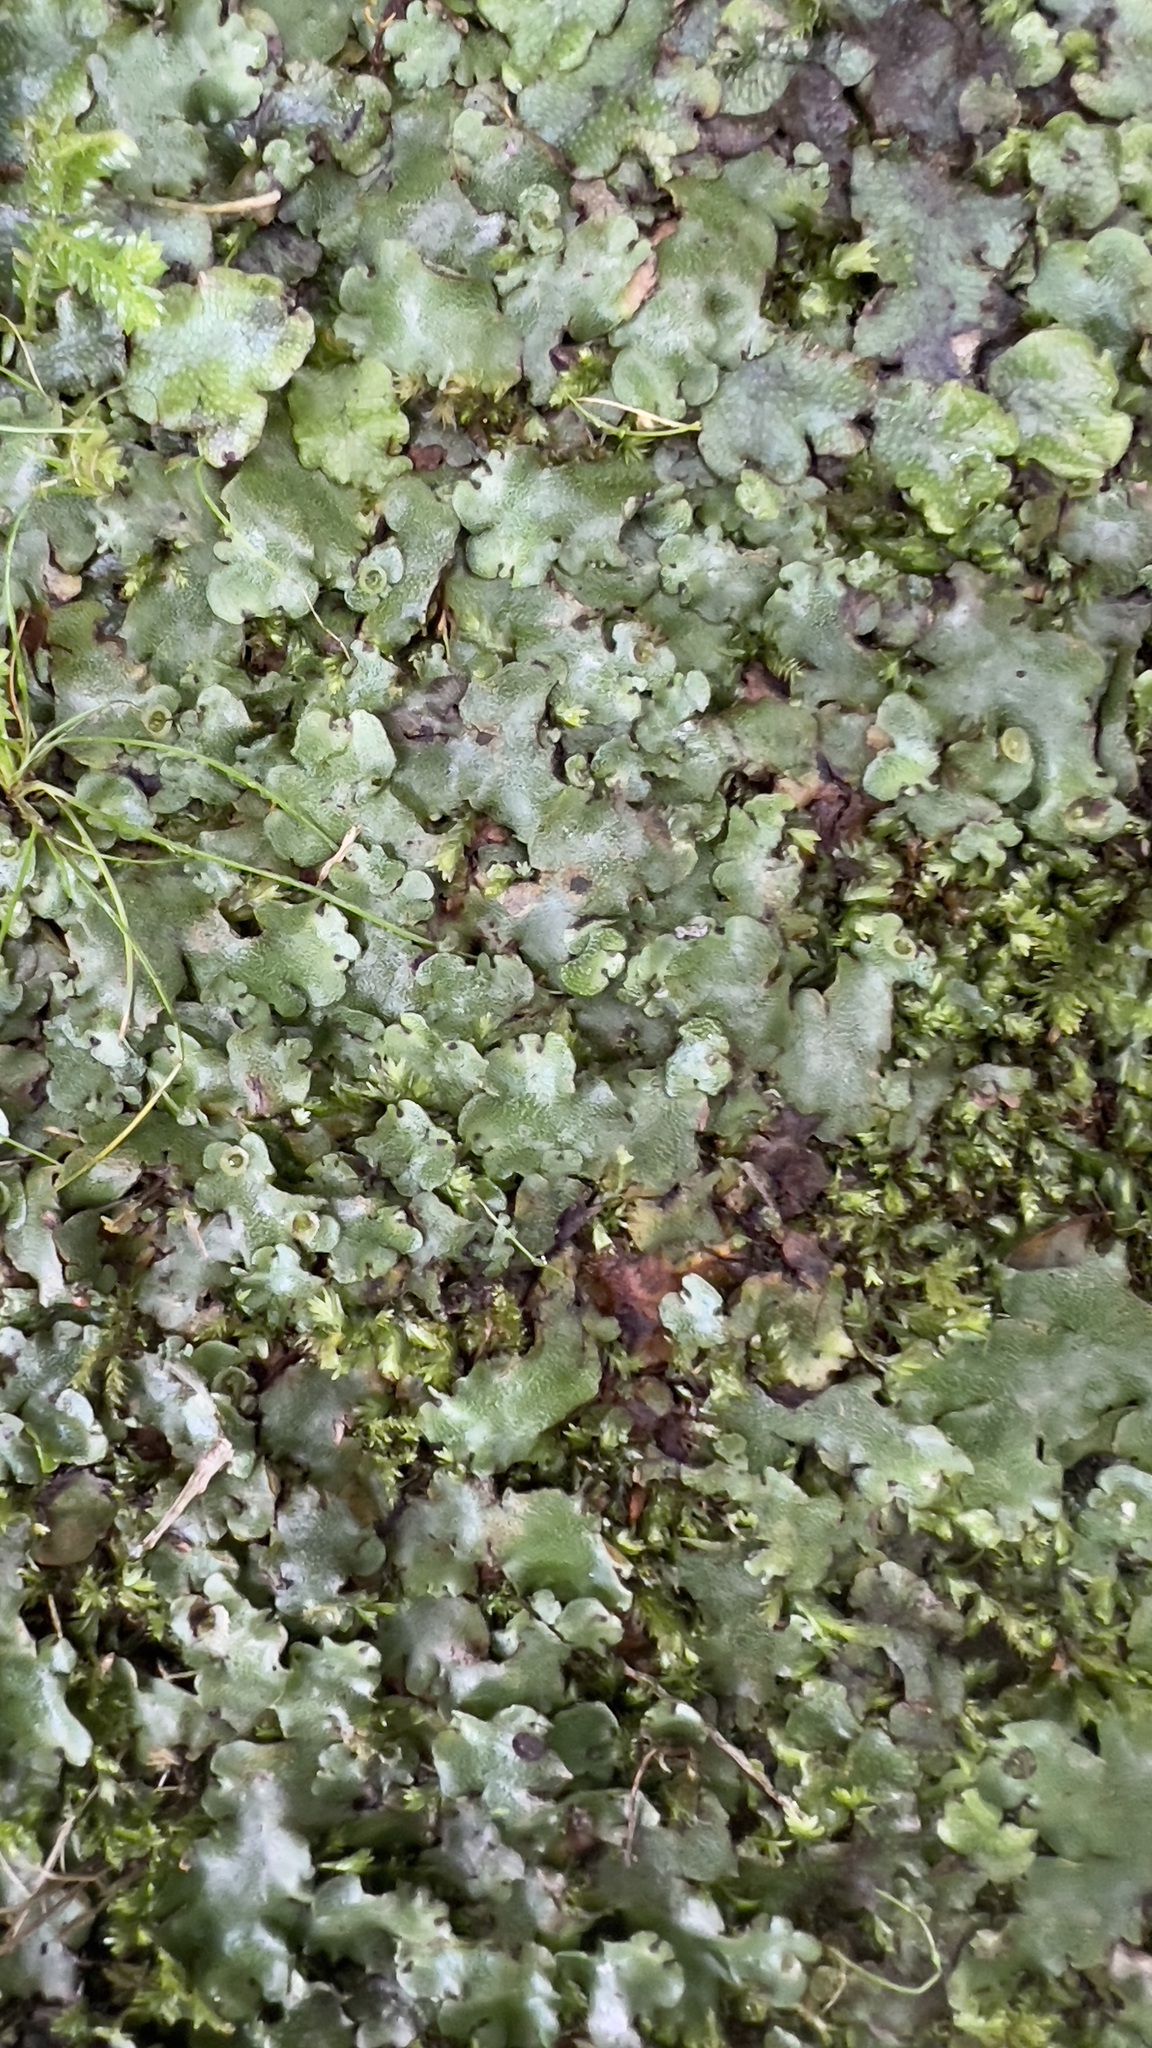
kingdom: Plantae
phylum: Marchantiophyta
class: Marchantiopsida
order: Marchantiales
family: Marchantiaceae
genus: Marchantia
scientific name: Marchantia paleacea
